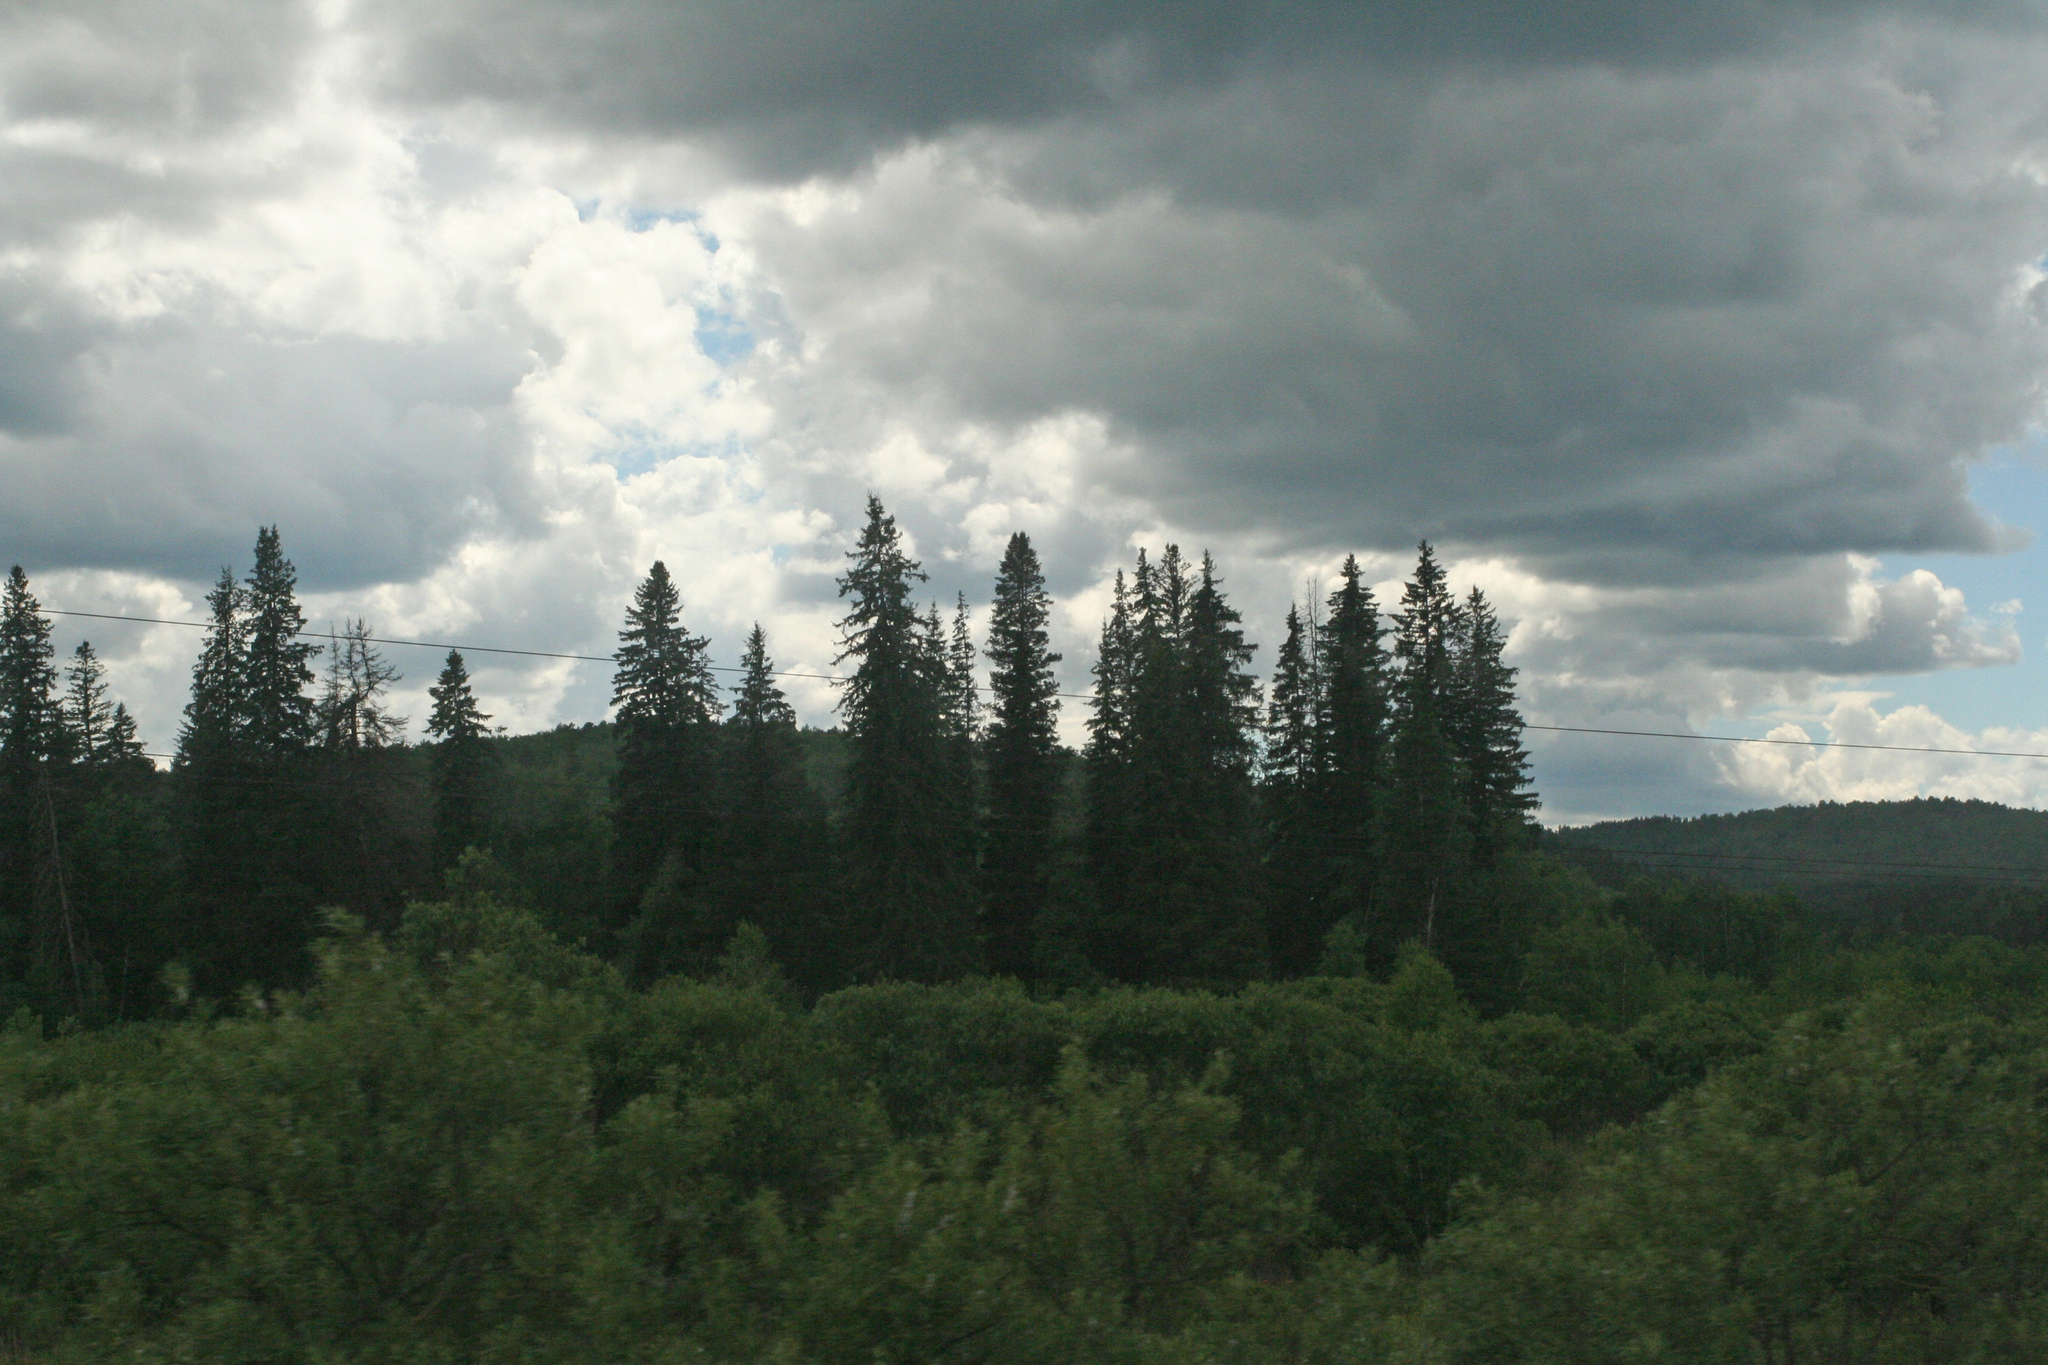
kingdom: Plantae
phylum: Tracheophyta
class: Pinopsida
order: Pinales
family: Pinaceae
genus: Picea
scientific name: Picea obovata
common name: Siberian spruce
